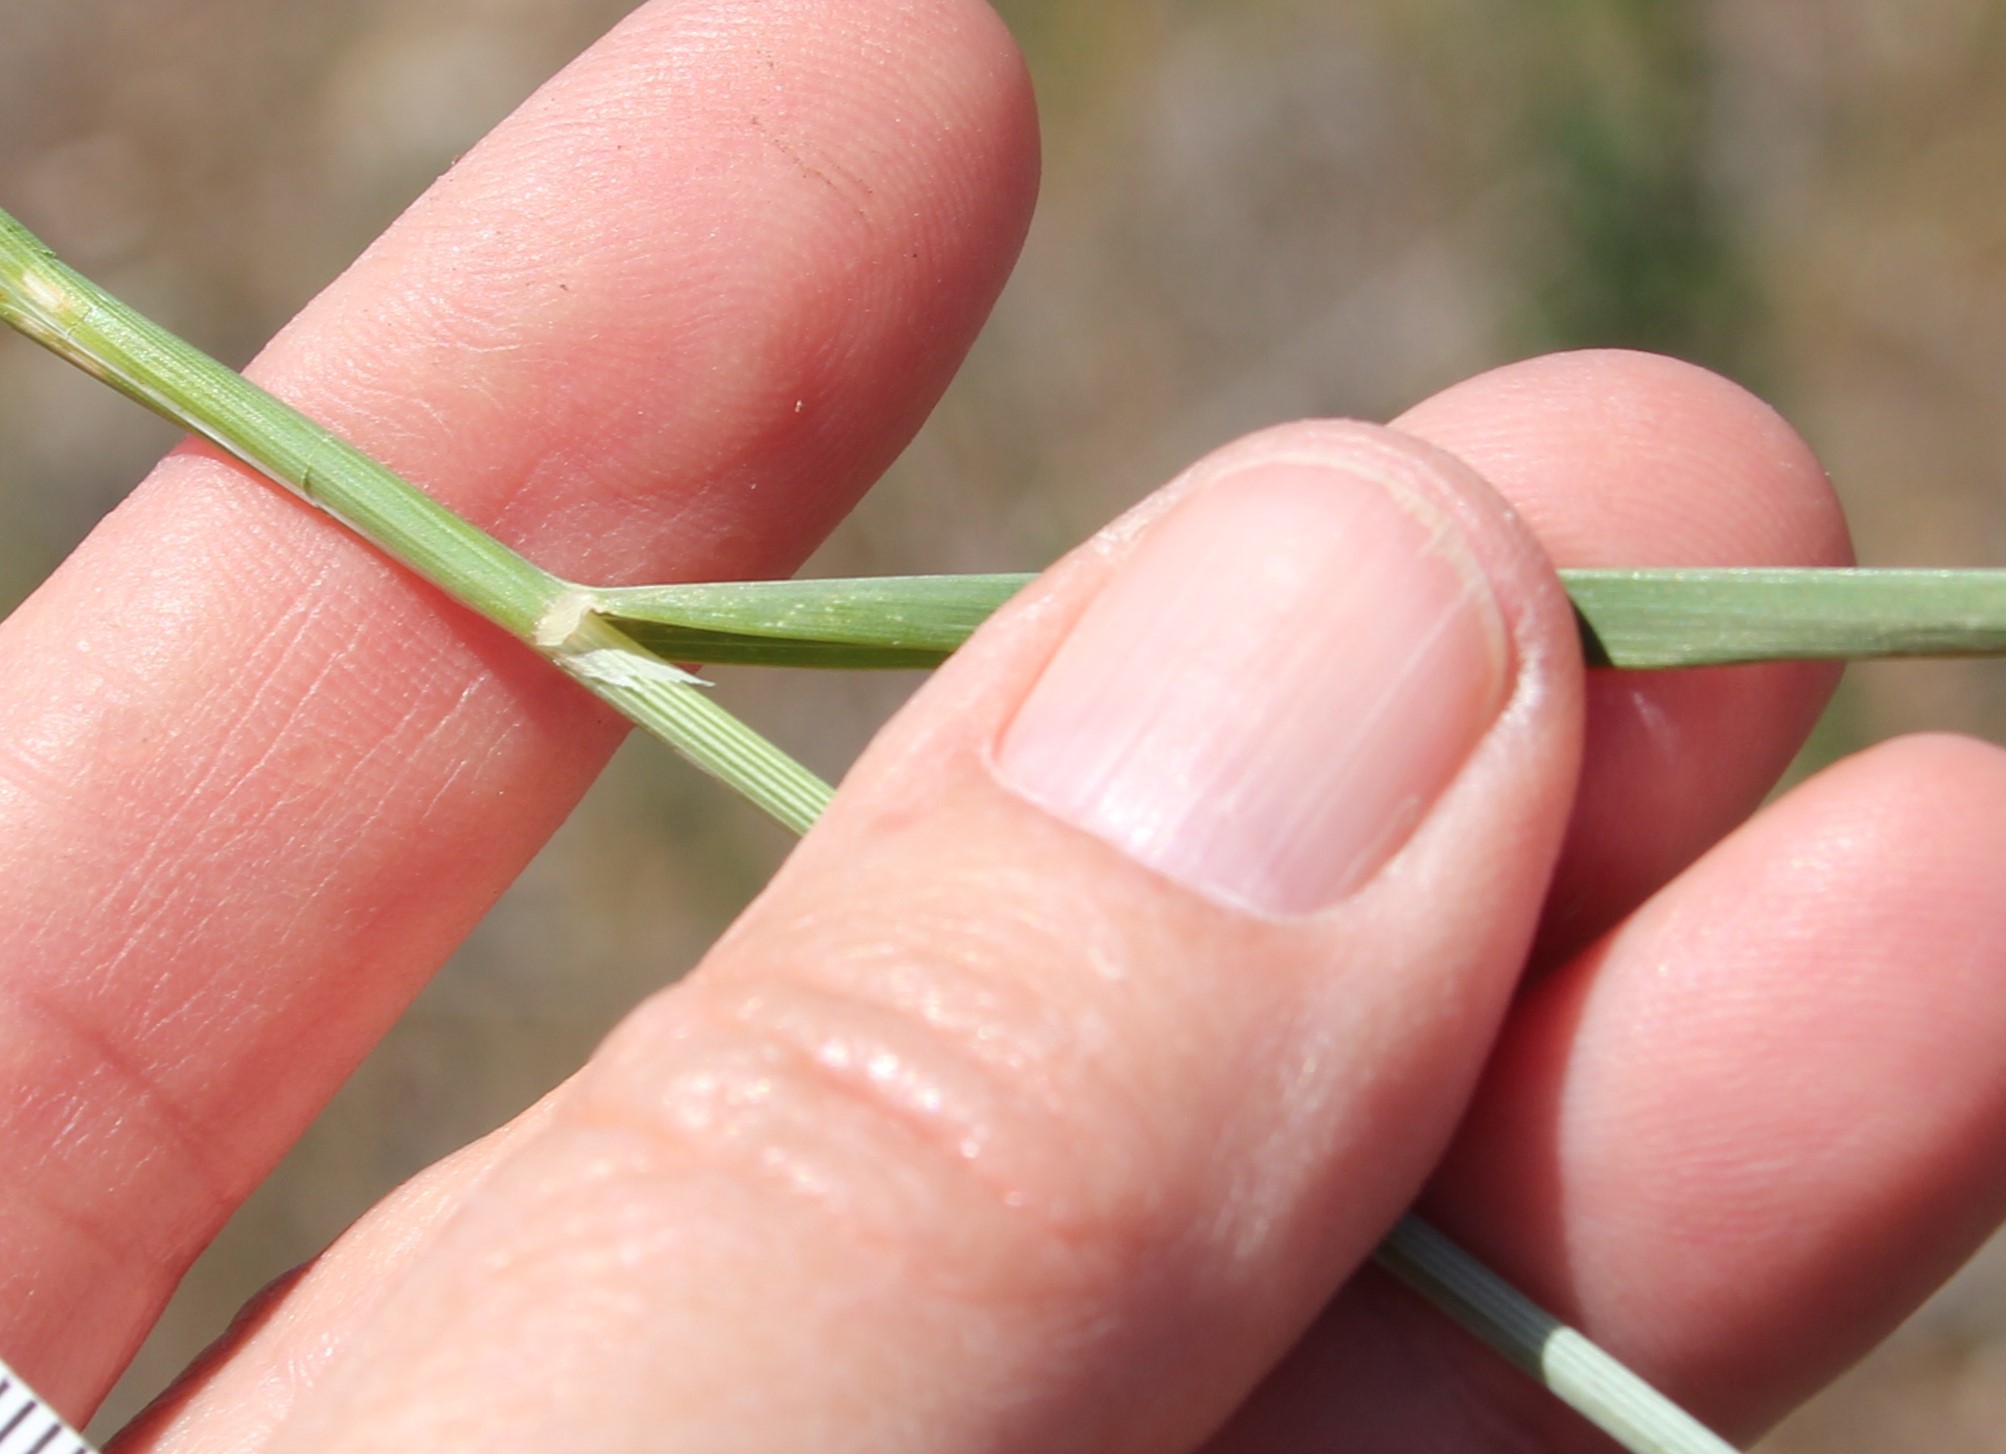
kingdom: Plantae
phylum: Tracheophyta
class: Liliopsida
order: Poales
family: Poaceae
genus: Avena
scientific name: Avena barbata
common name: Slender oat
